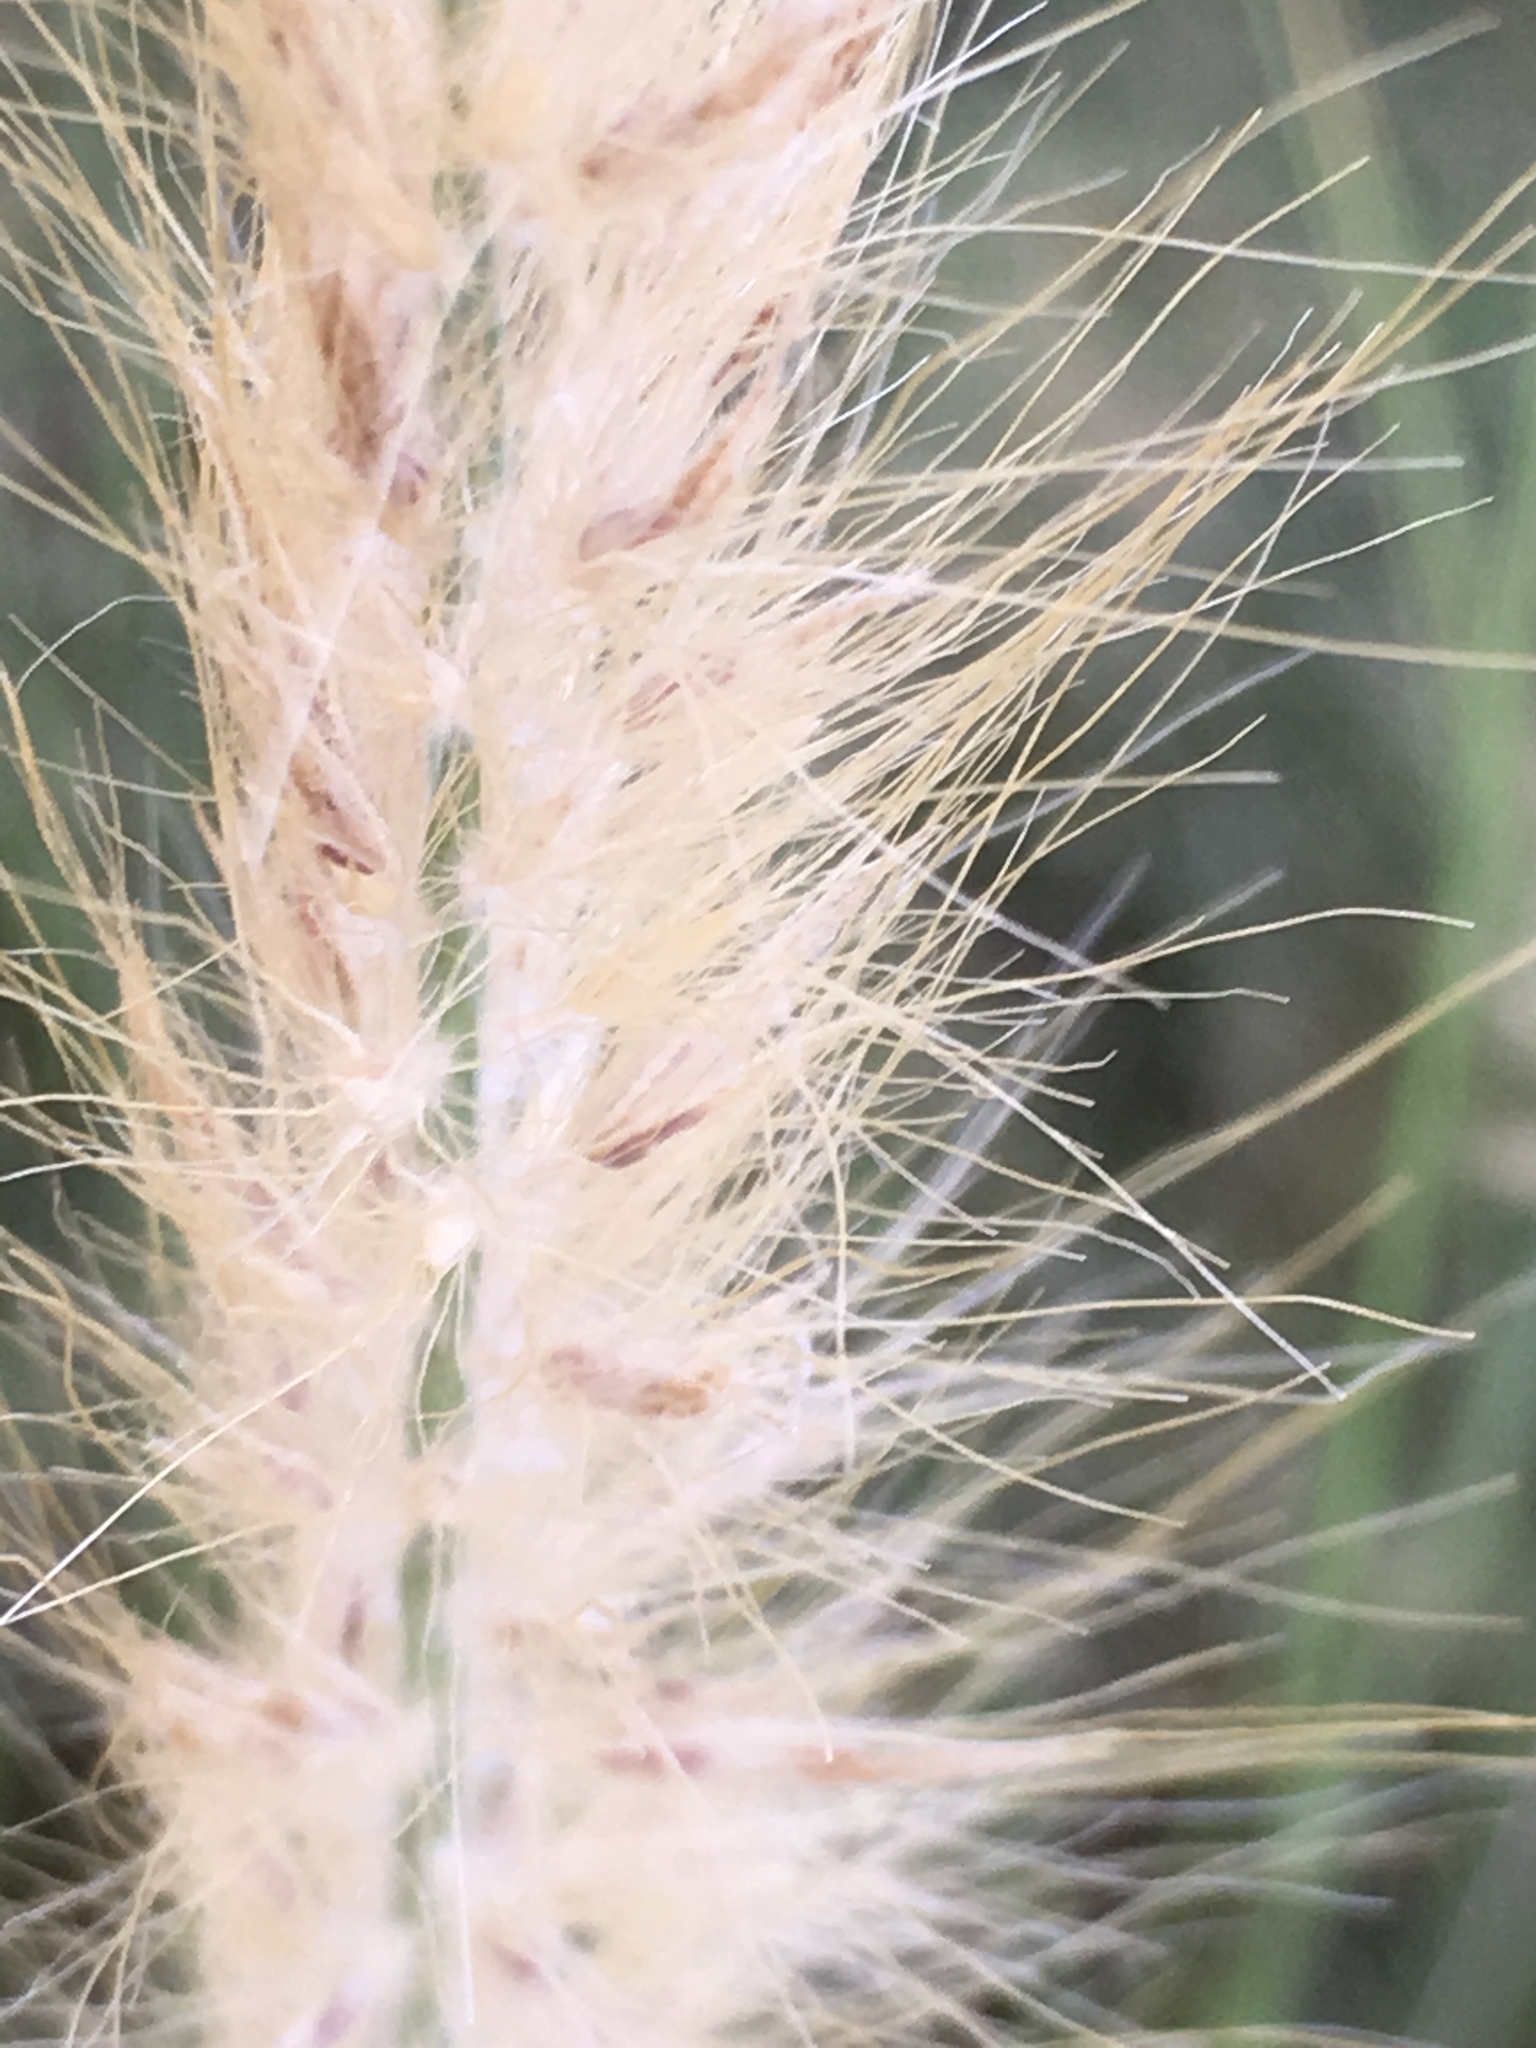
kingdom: Plantae
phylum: Tracheophyta
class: Liliopsida
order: Poales
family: Poaceae
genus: Cenchrus
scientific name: Cenchrus setaceus
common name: Crimson fountaingrass
